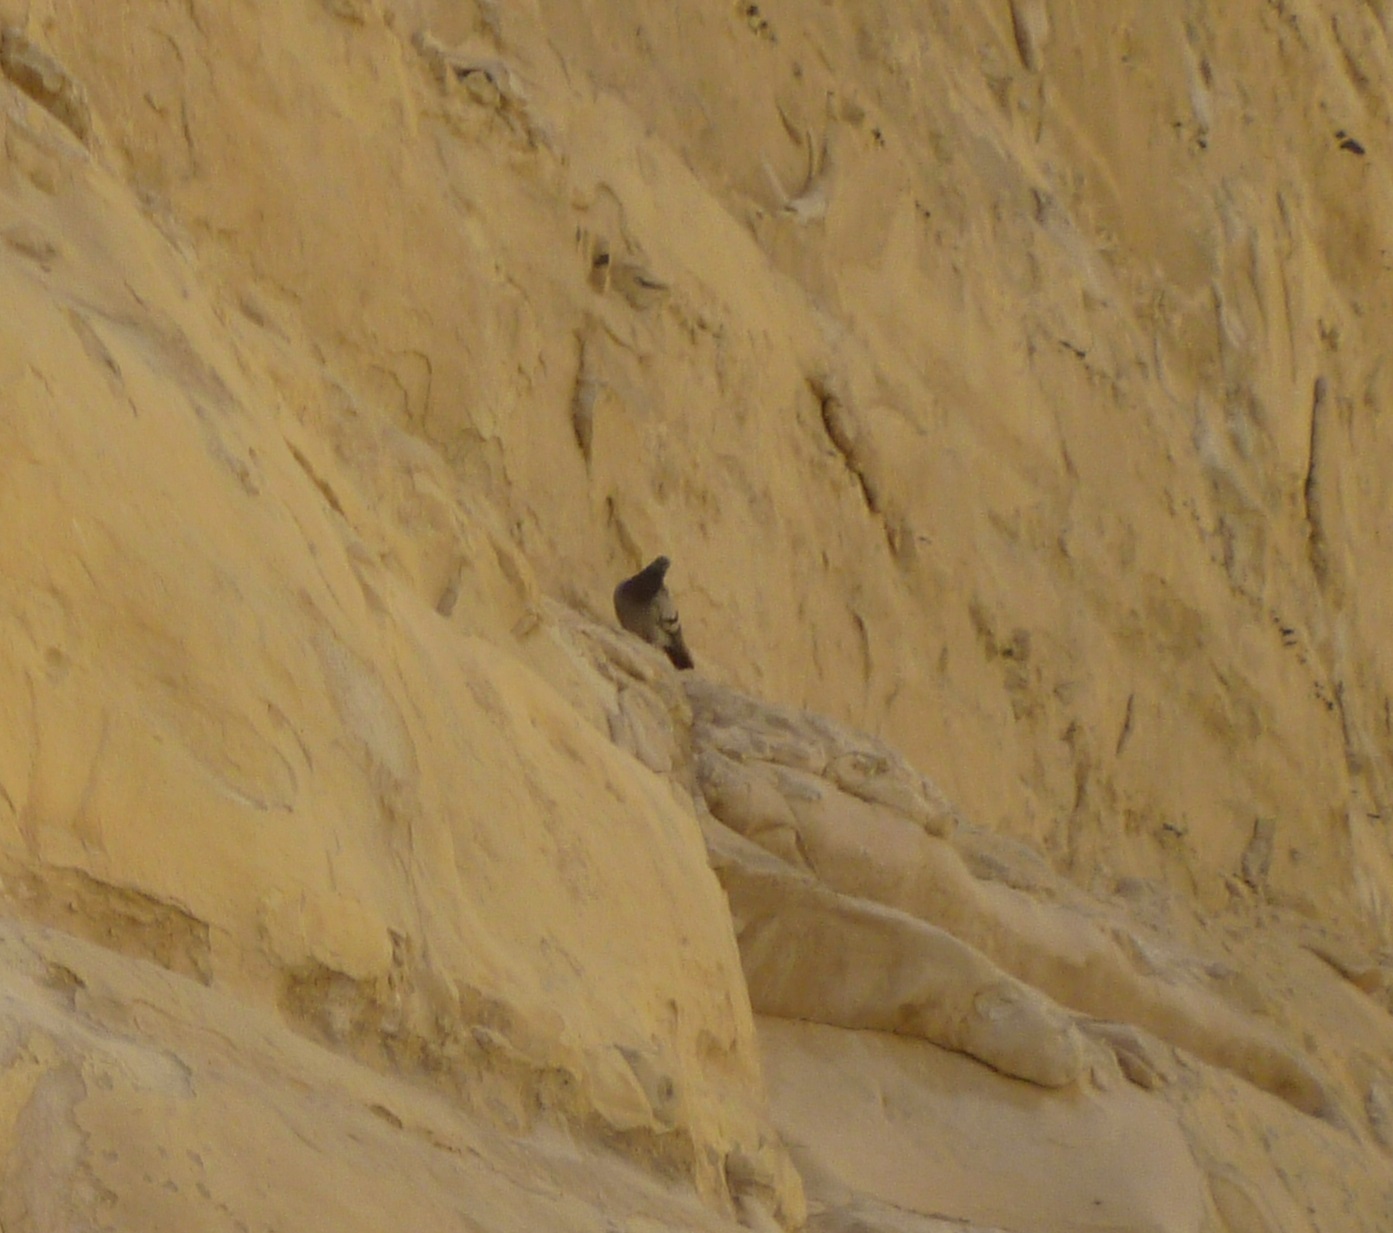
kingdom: Animalia
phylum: Chordata
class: Aves
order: Columbiformes
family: Columbidae
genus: Columba
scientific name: Columba livia
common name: Rock pigeon
